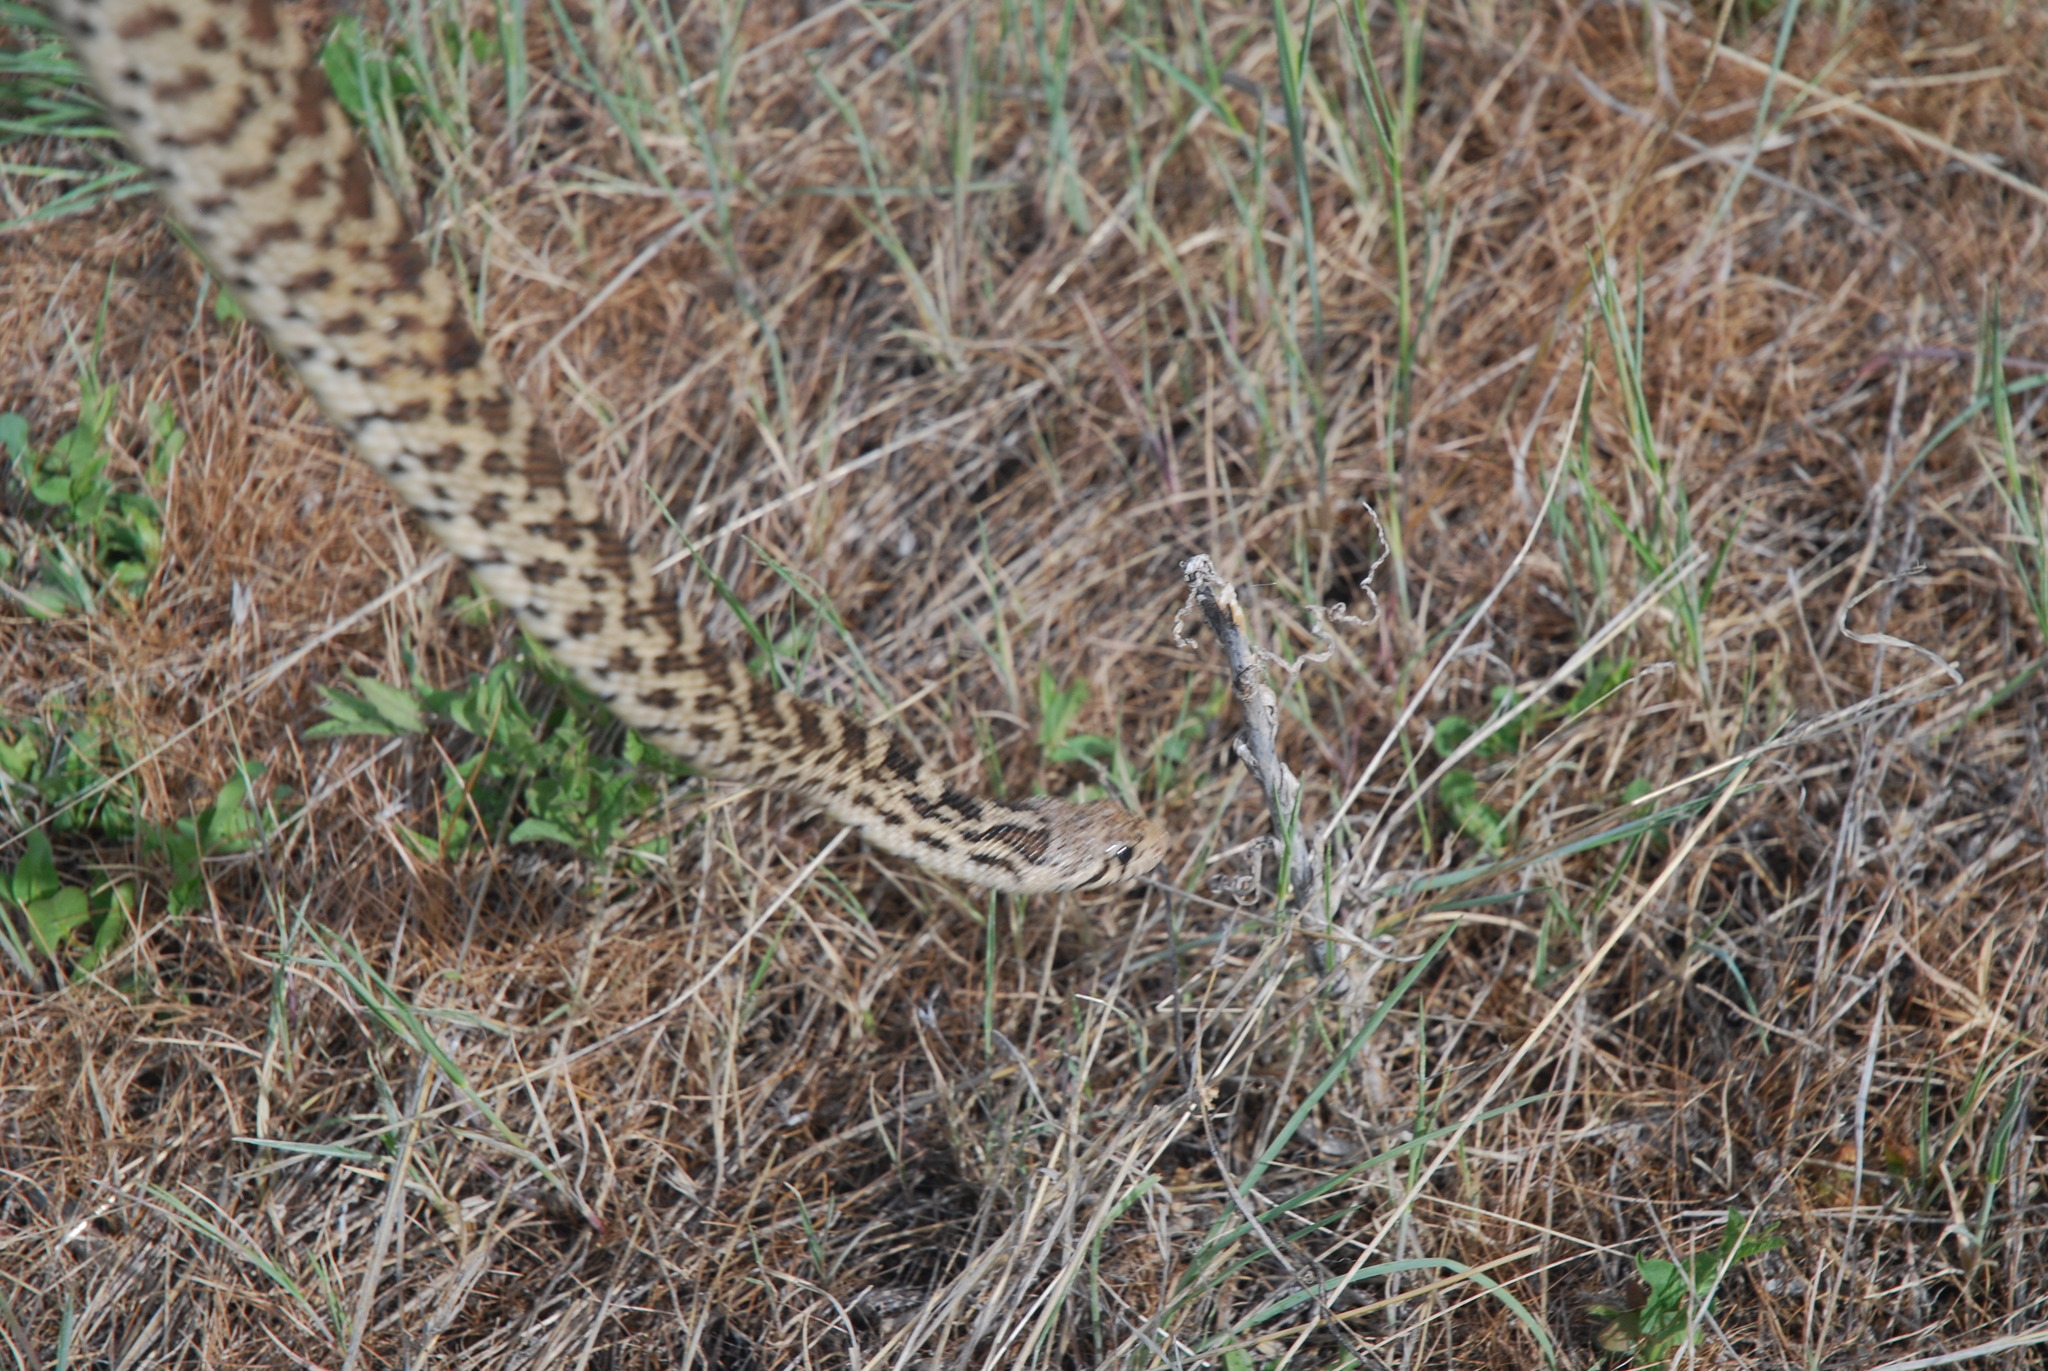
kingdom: Animalia
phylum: Chordata
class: Squamata
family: Colubridae
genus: Pituophis
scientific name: Pituophis catenifer
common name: Gopher snake
